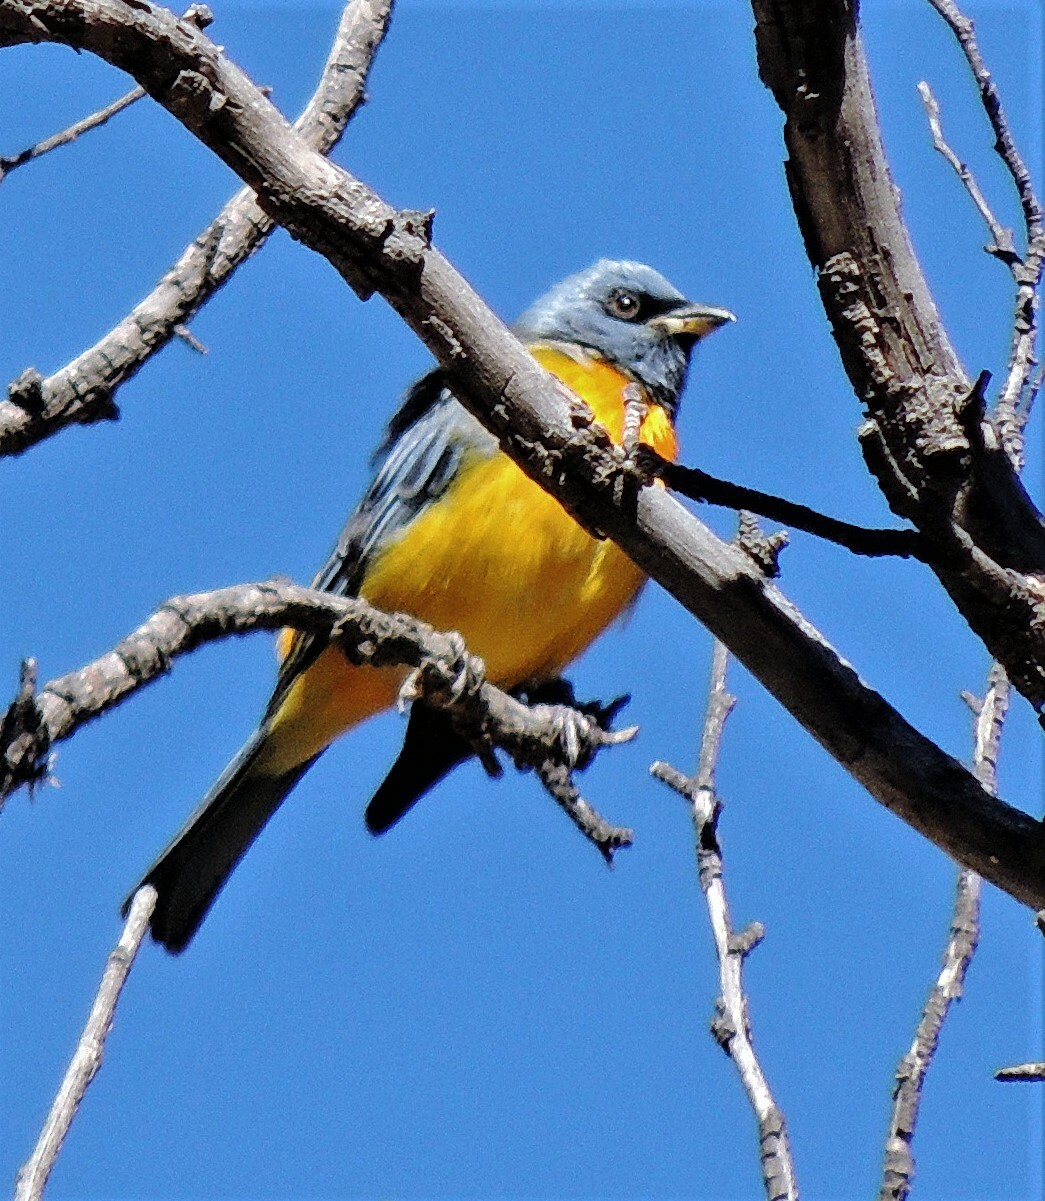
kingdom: Animalia
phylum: Chordata
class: Aves
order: Passeriformes
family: Thraupidae
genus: Rauenia
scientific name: Rauenia bonariensis
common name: Blue-and-yellow tanager
